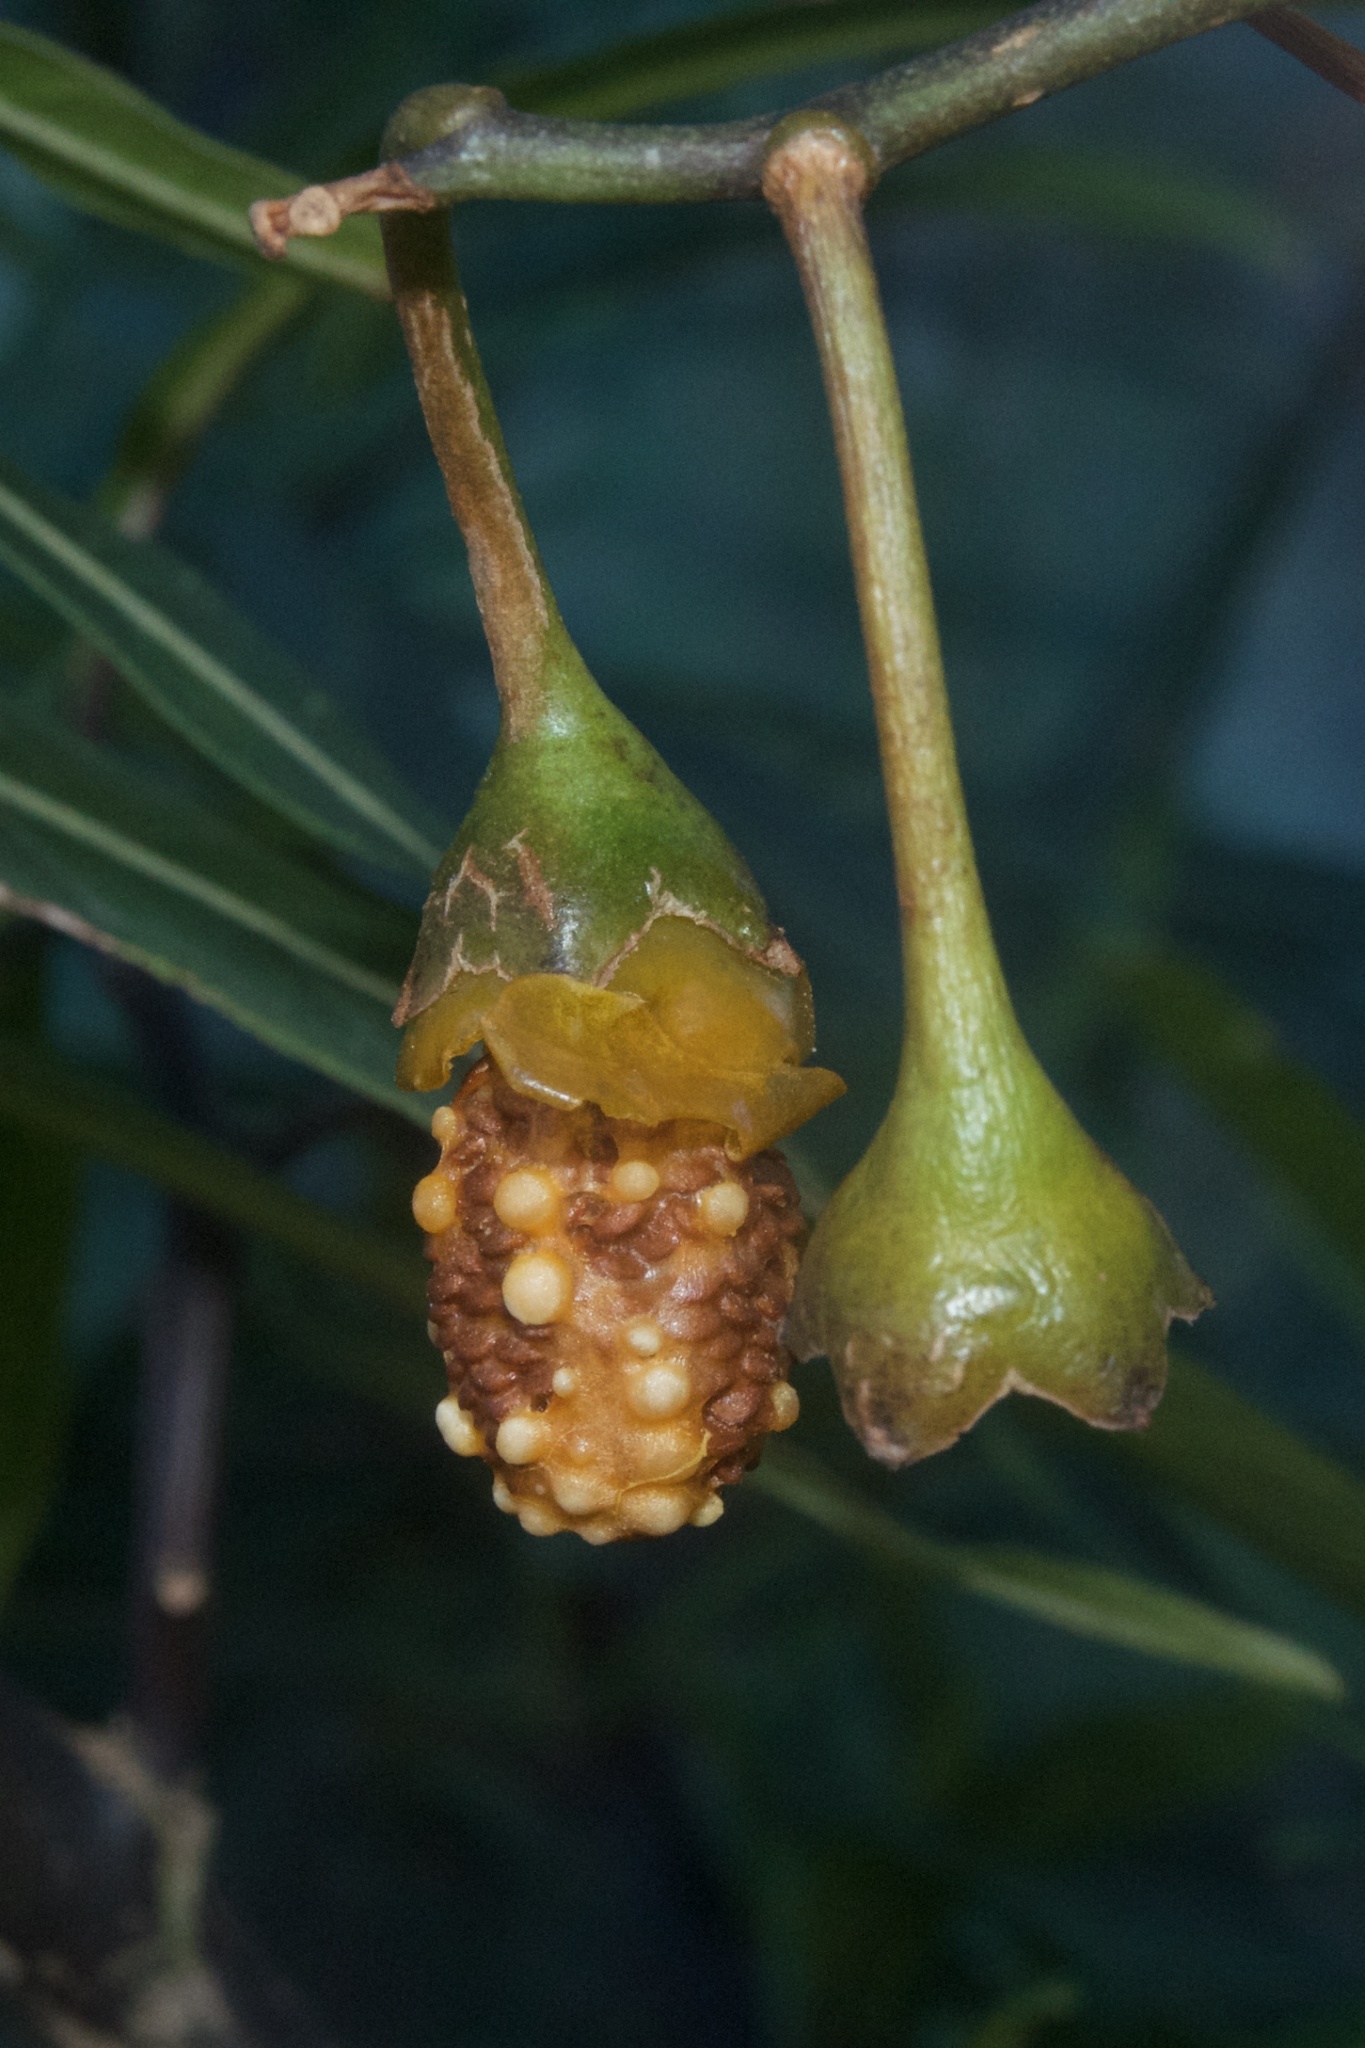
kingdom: Plantae
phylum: Tracheophyta
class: Magnoliopsida
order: Solanales
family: Solanaceae
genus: Solanum
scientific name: Solanum laciniatum
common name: Kangaroo-apple
